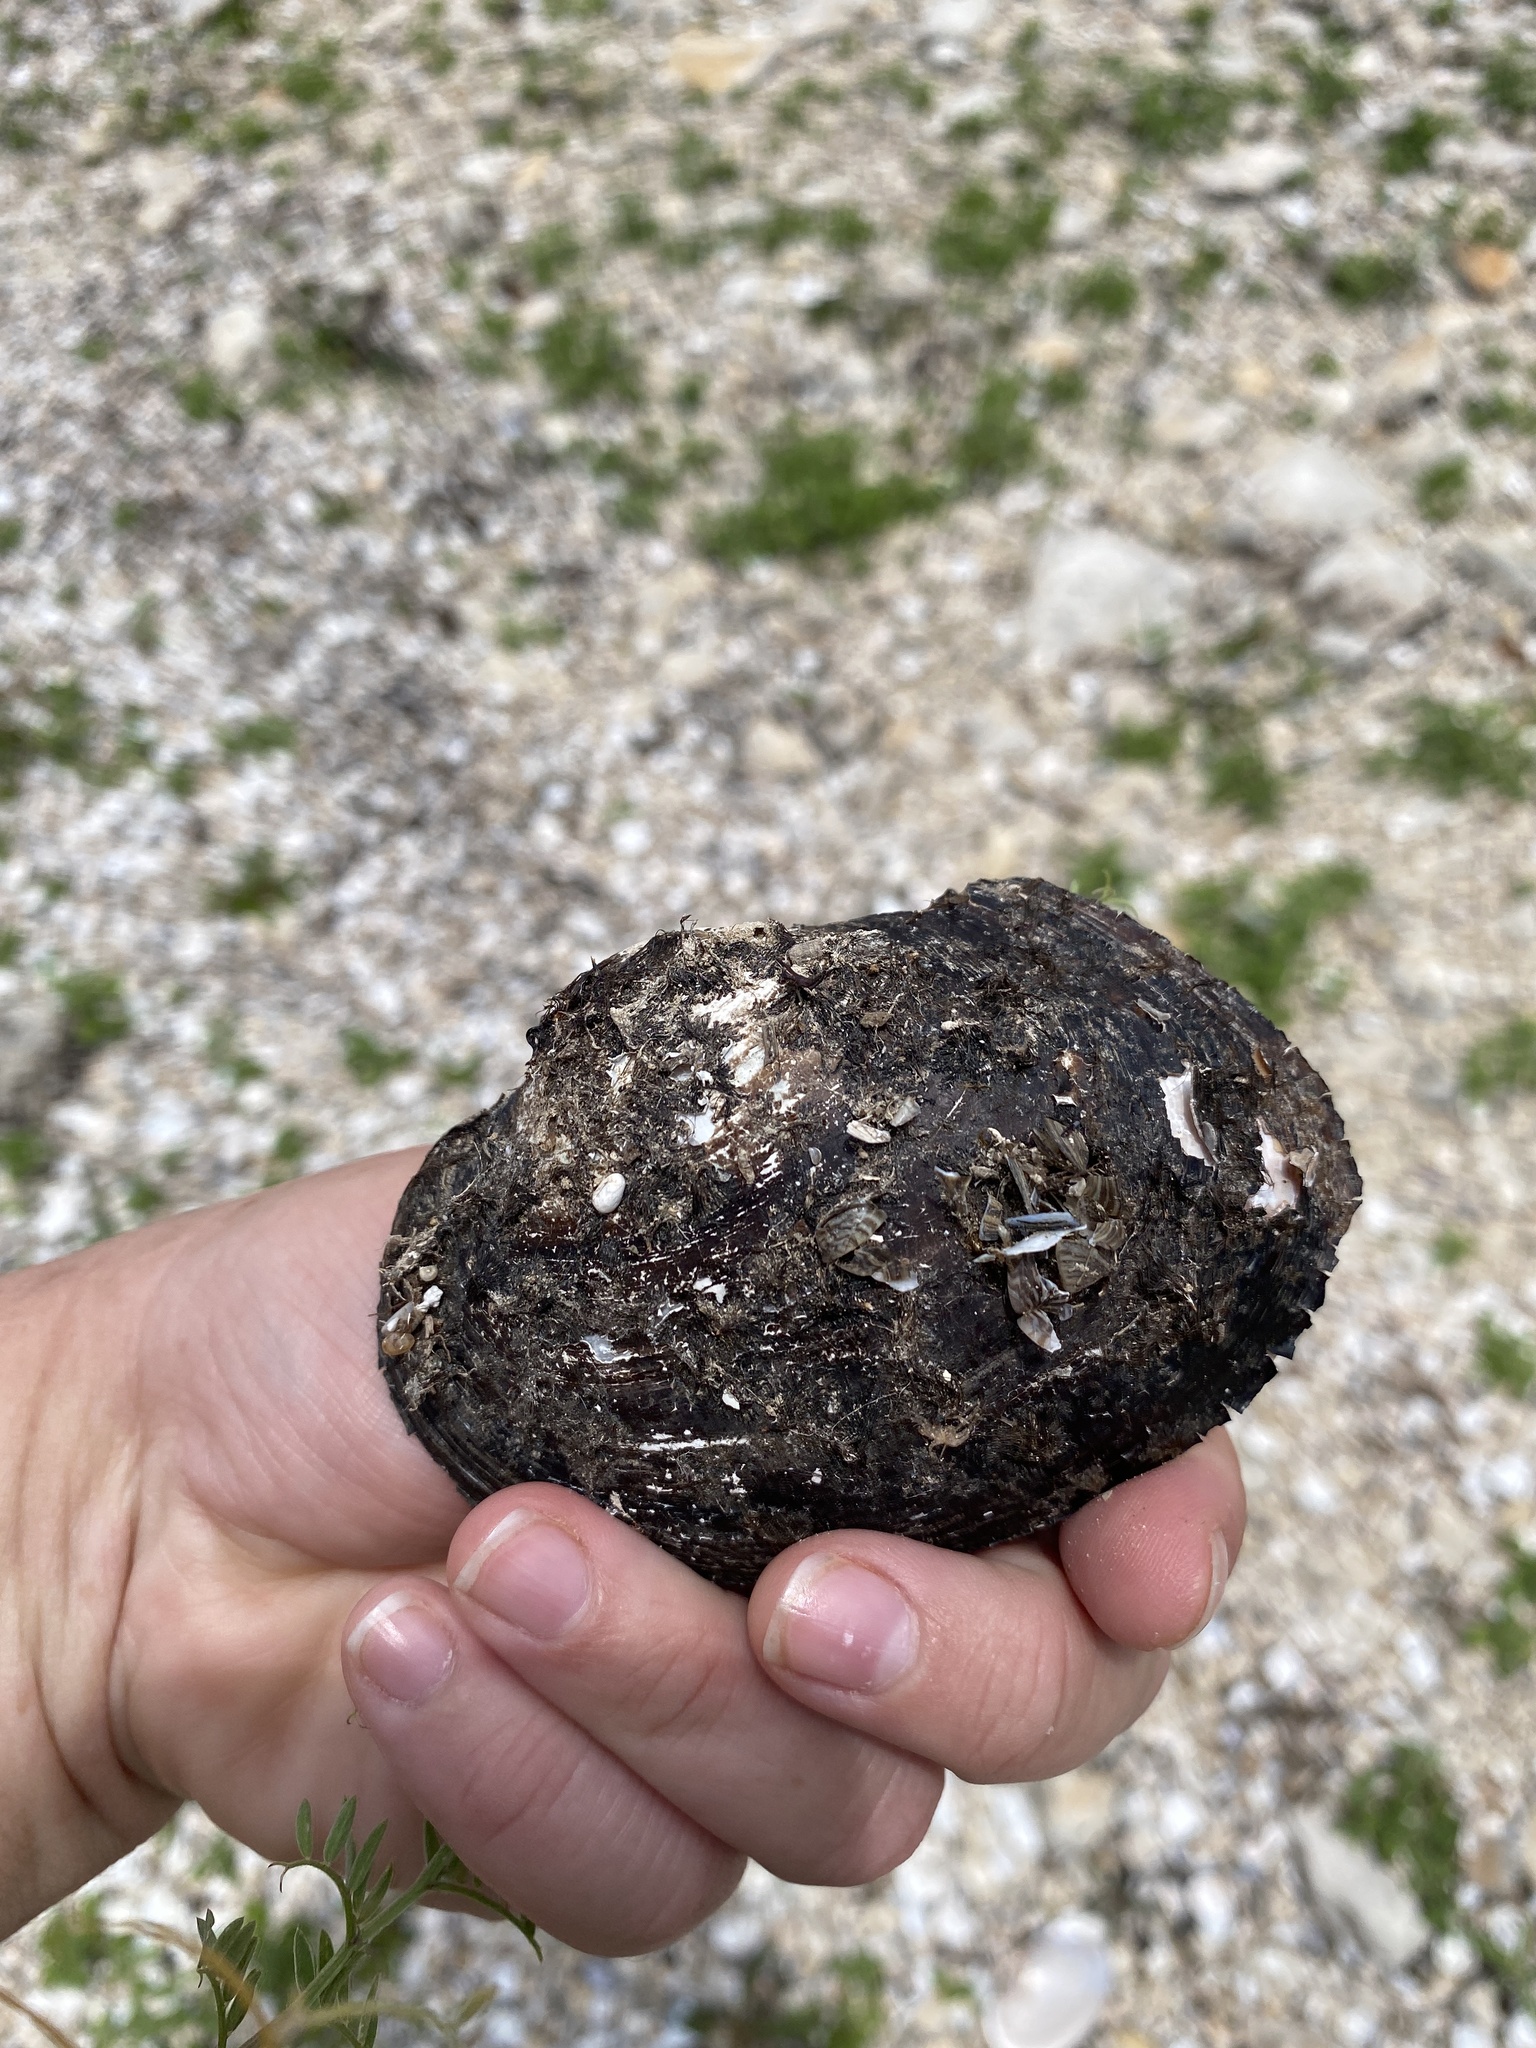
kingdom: Animalia
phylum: Mollusca
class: Bivalvia
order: Unionida
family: Unionidae
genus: Cyrtonaias
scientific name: Cyrtonaias tampicoensis
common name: Tampico pearlymussel
